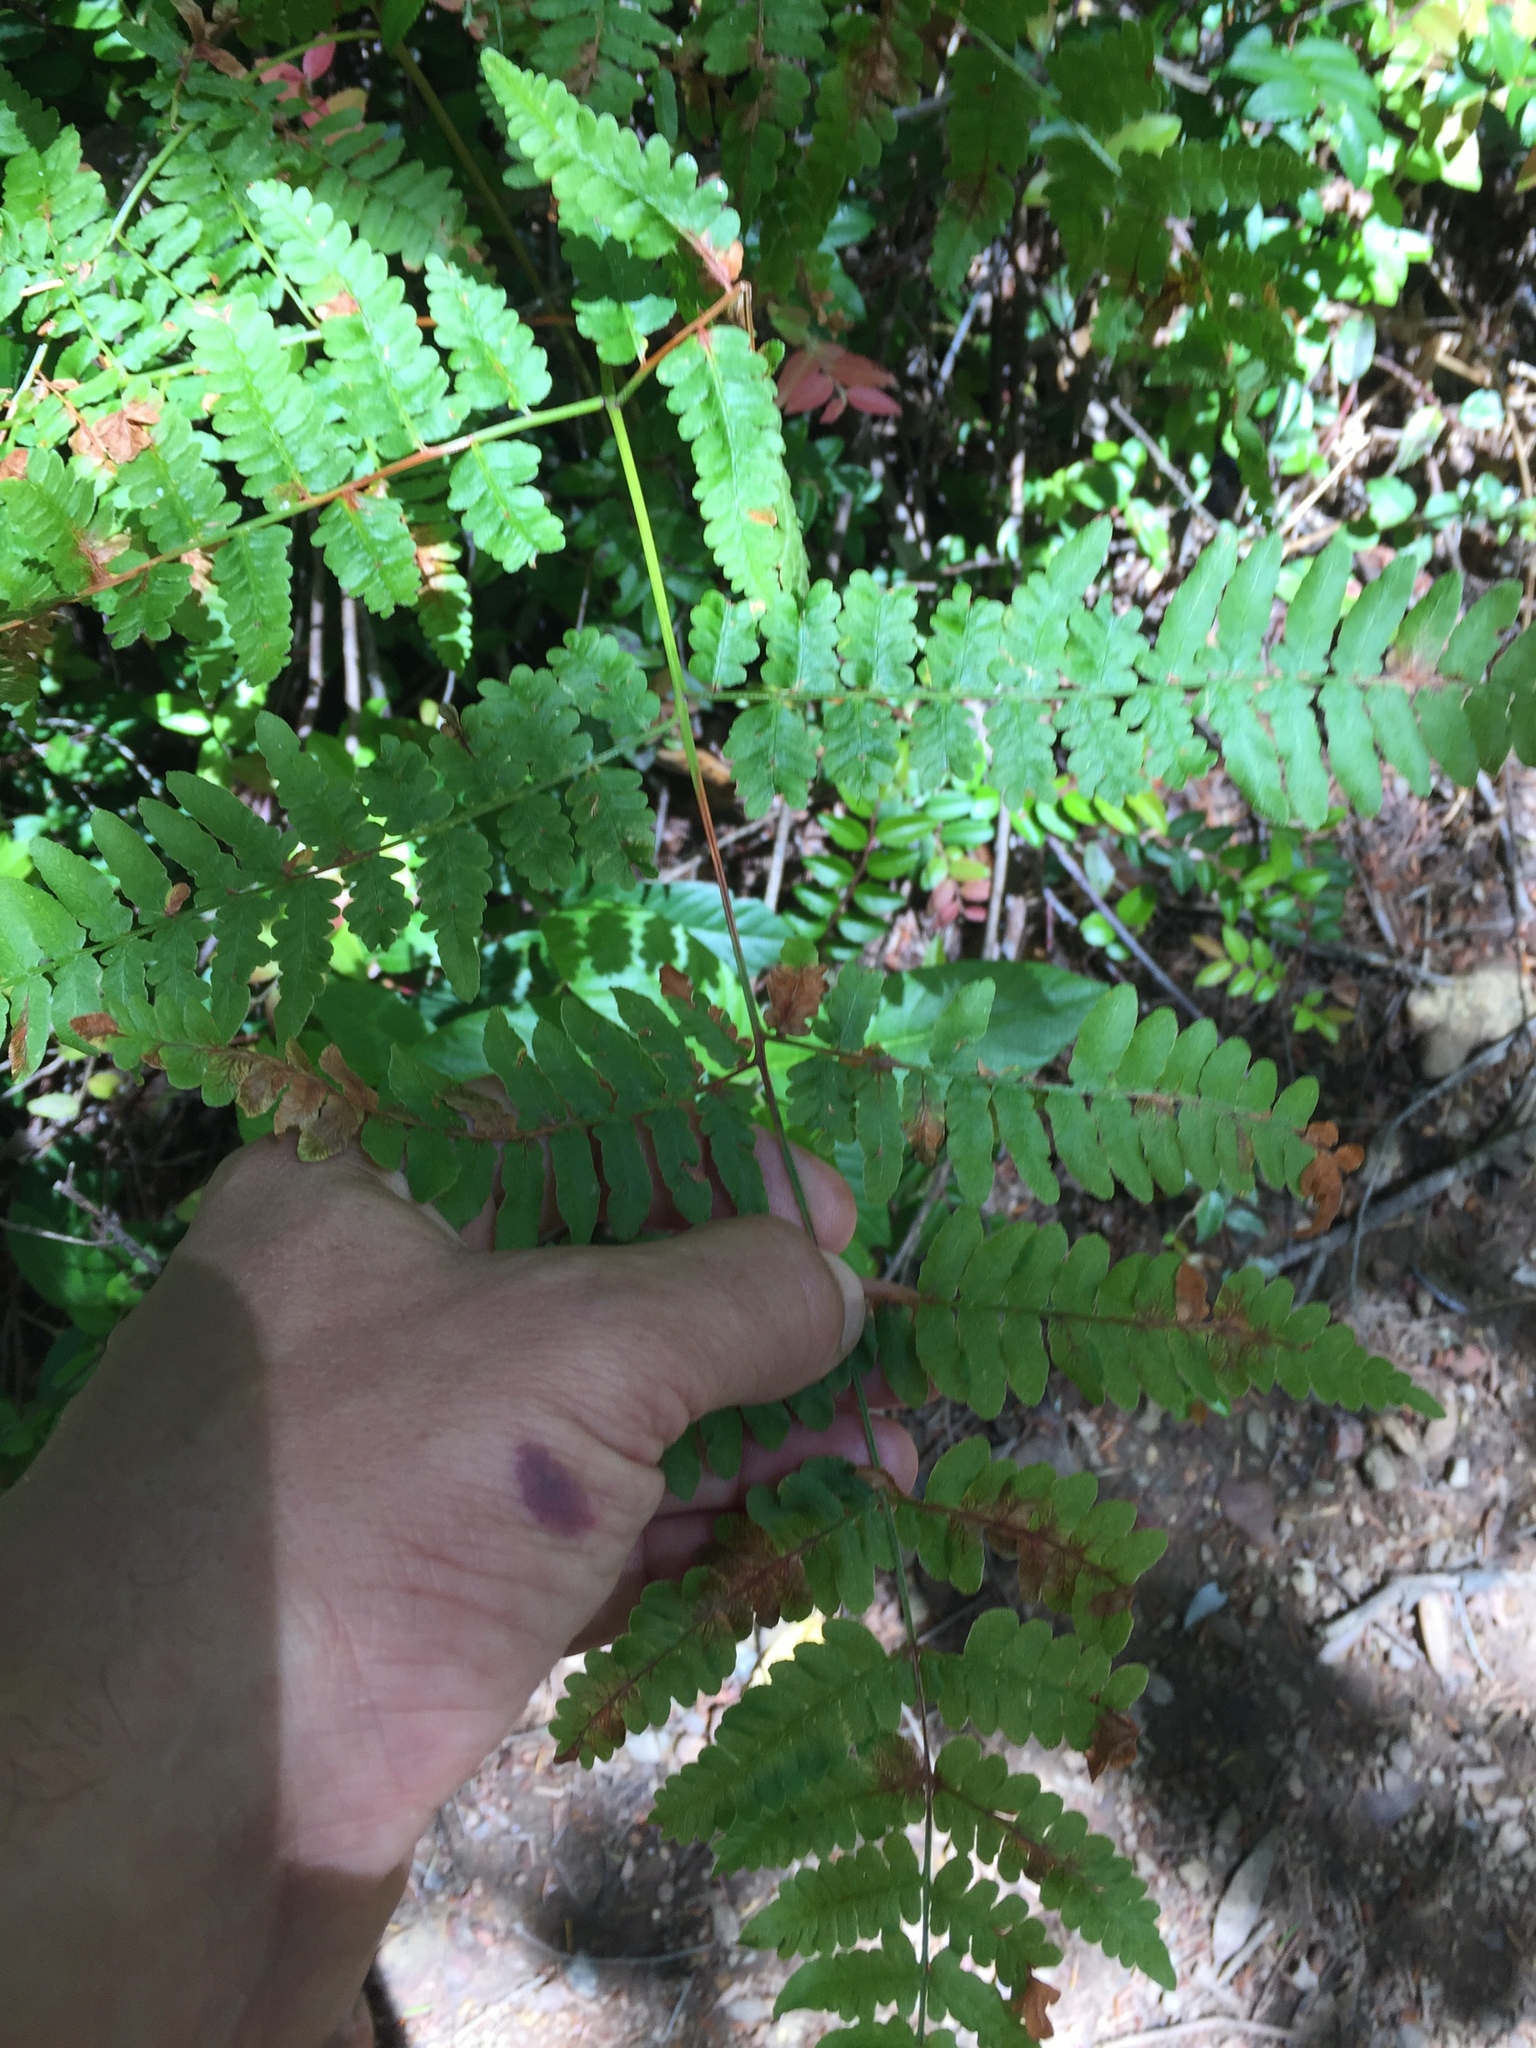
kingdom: Plantae
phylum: Tracheophyta
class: Polypodiopsida
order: Polypodiales
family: Dennstaedtiaceae
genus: Pteridium
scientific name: Pteridium aquilinum
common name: Bracken
